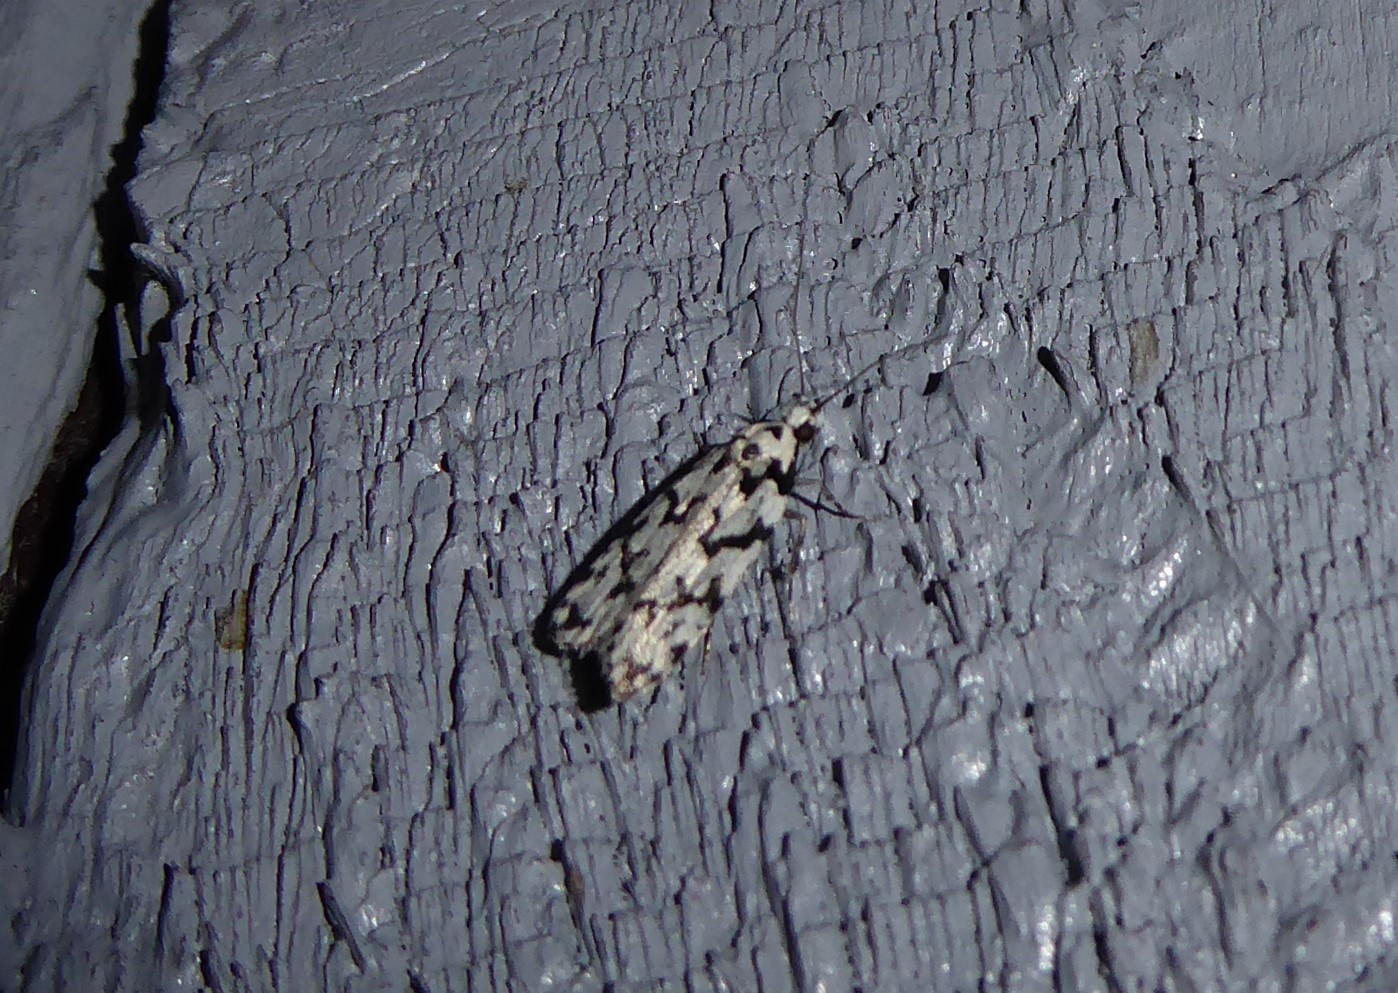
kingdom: Animalia
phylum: Arthropoda
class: Insecta
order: Lepidoptera
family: Oecophoridae
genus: Izatha
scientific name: Izatha katadiktya
